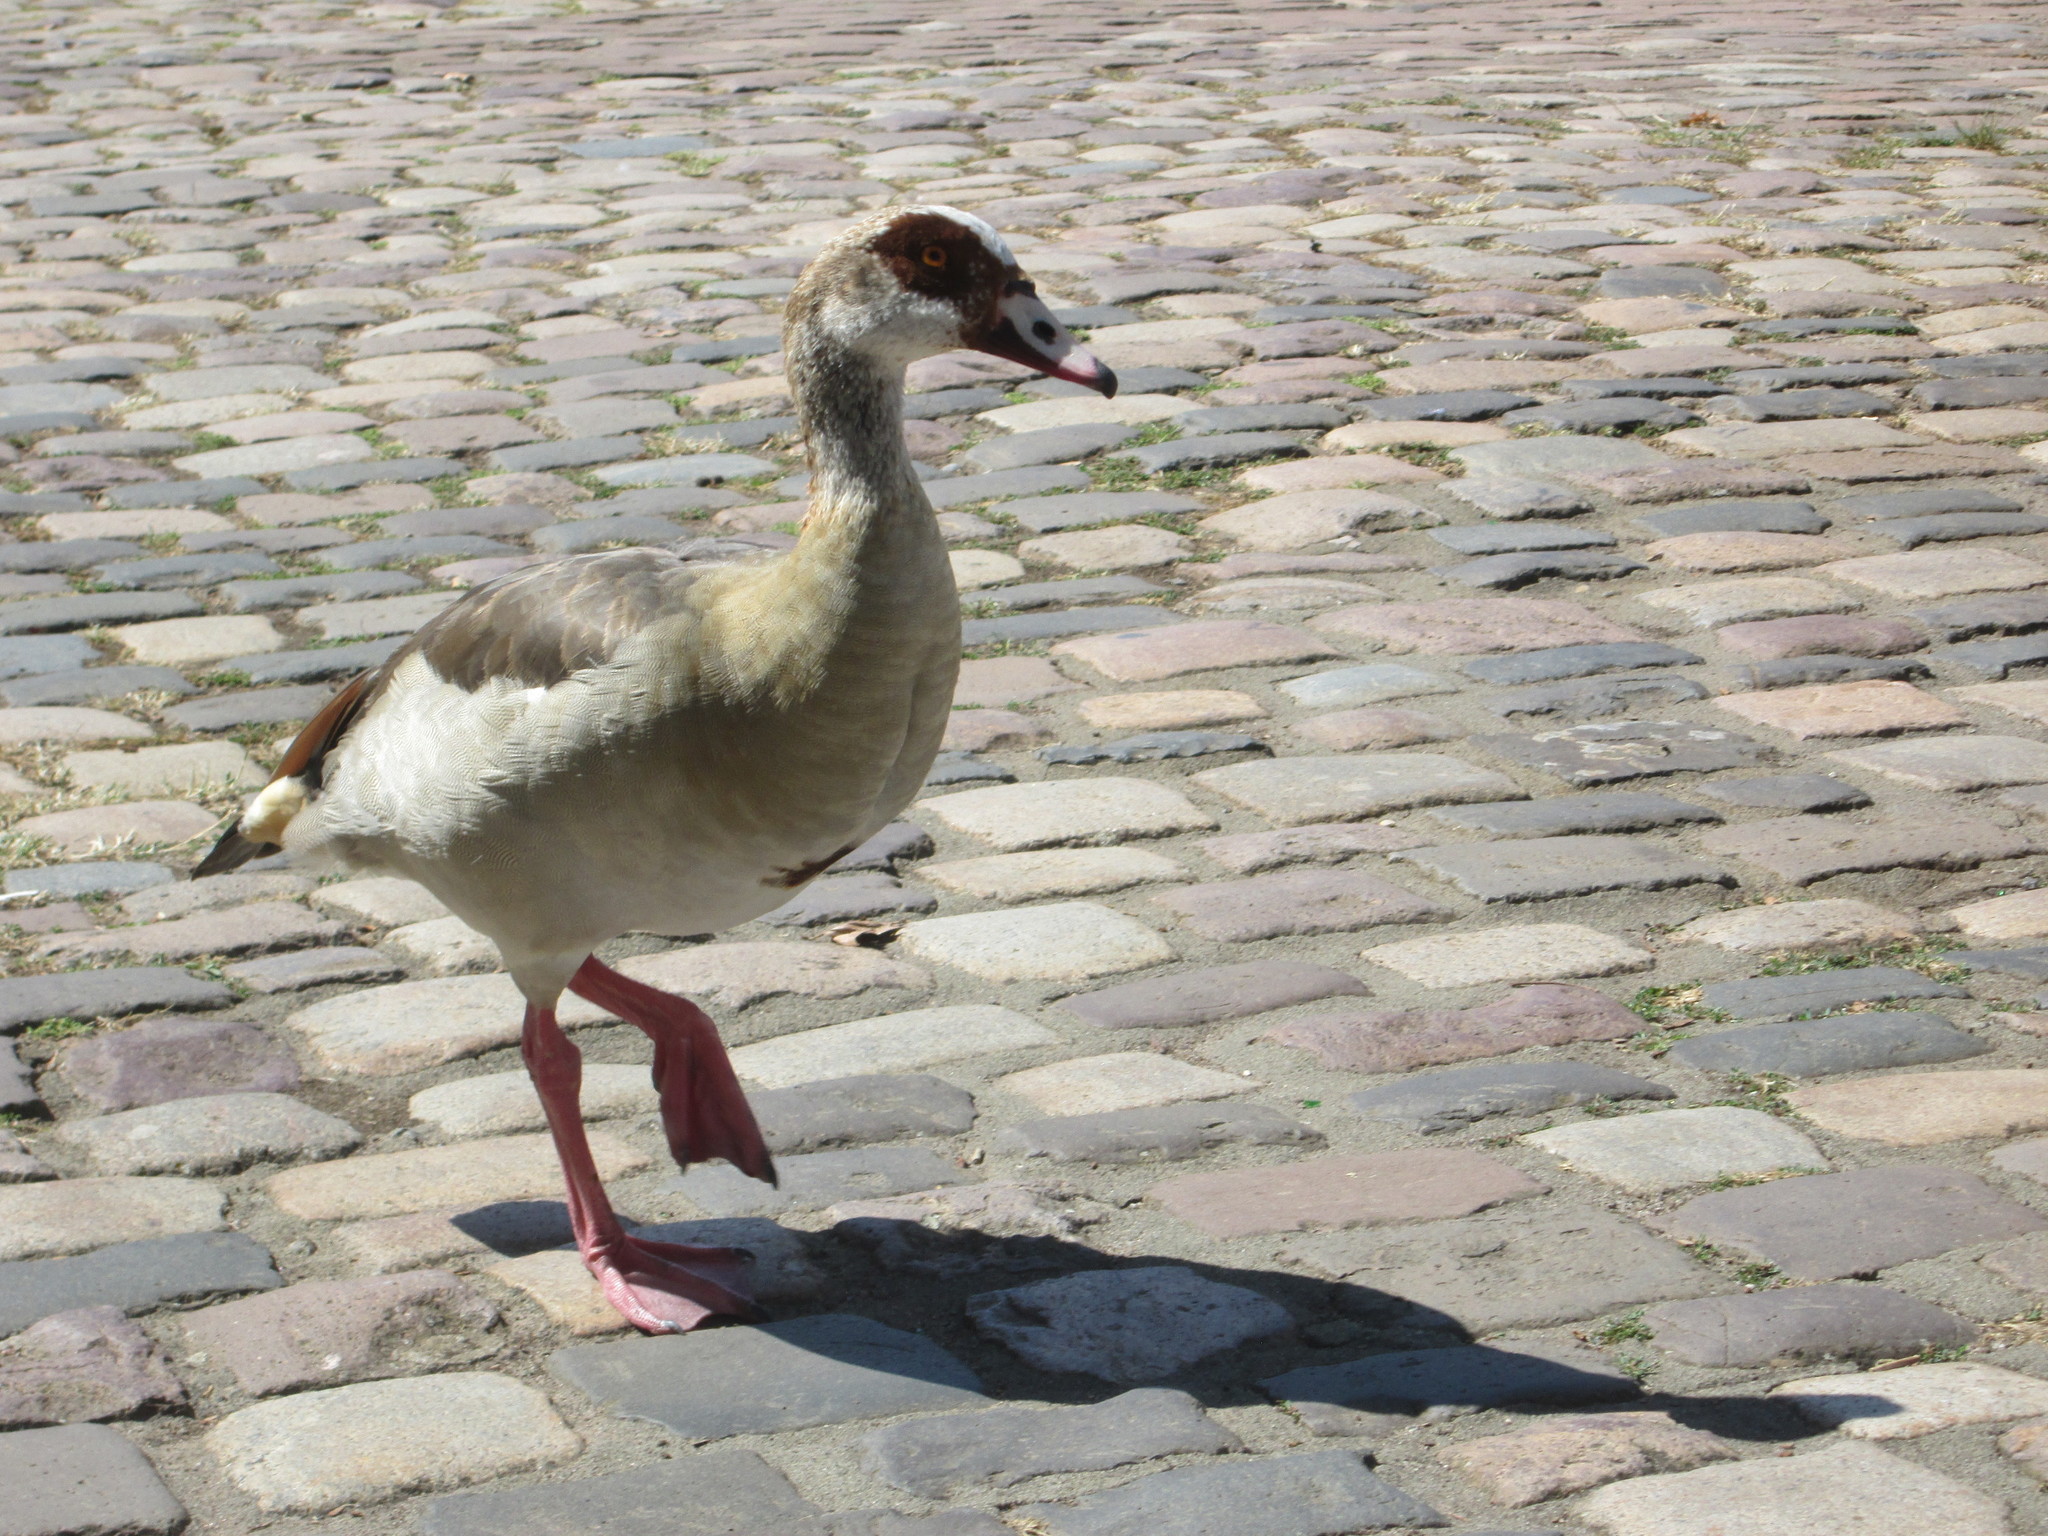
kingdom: Animalia
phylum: Chordata
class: Aves
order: Anseriformes
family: Anatidae
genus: Alopochen
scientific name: Alopochen aegyptiaca
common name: Egyptian goose
